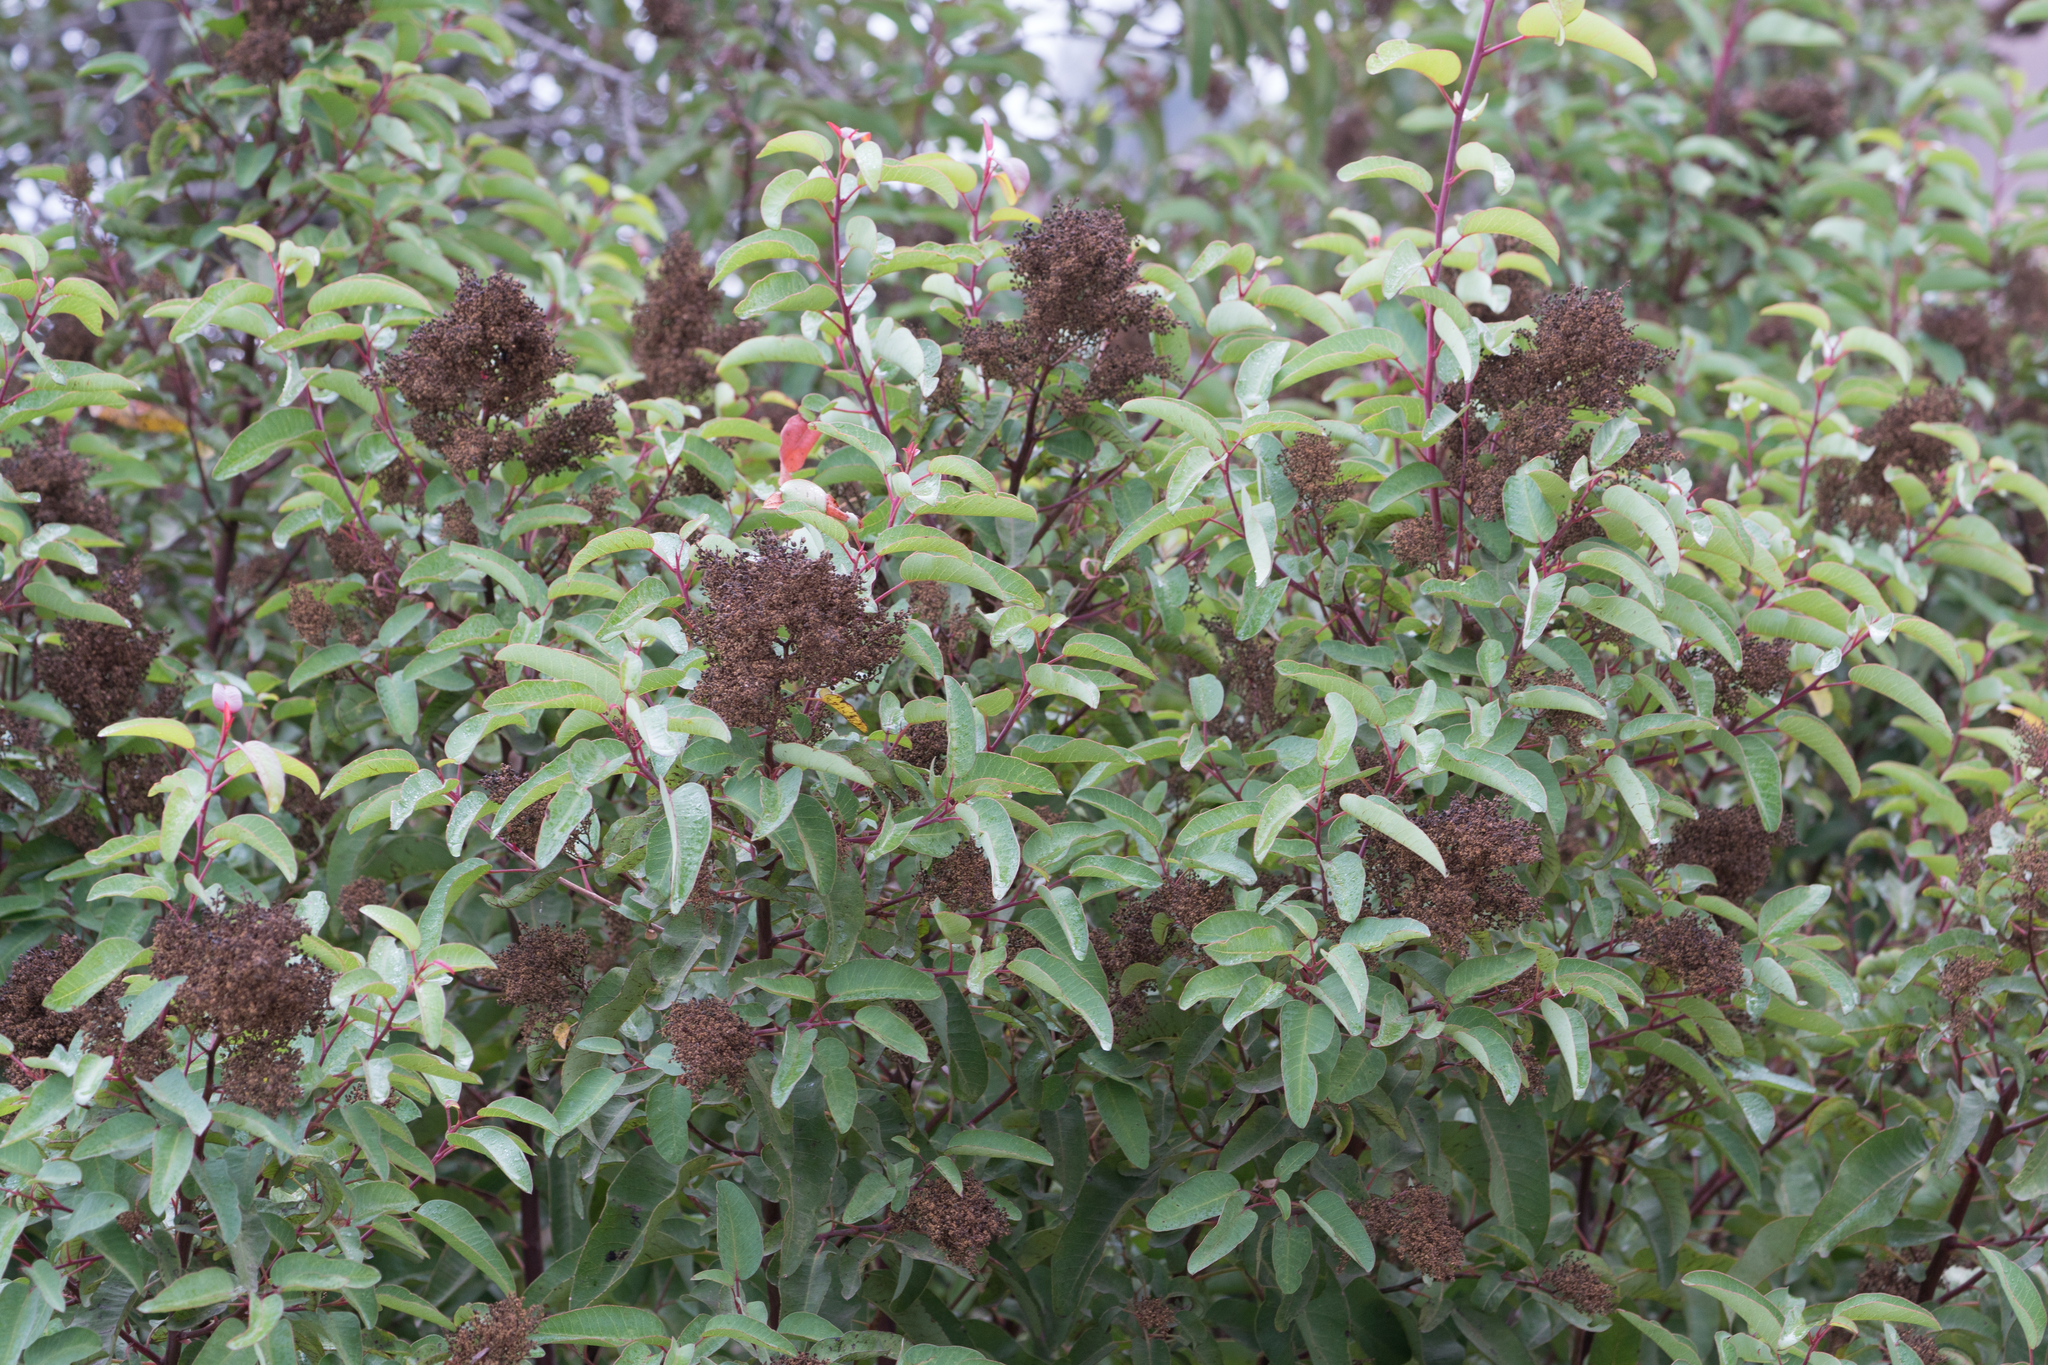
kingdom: Plantae
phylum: Tracheophyta
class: Magnoliopsida
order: Sapindales
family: Anacardiaceae
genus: Malosma
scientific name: Malosma laurina
